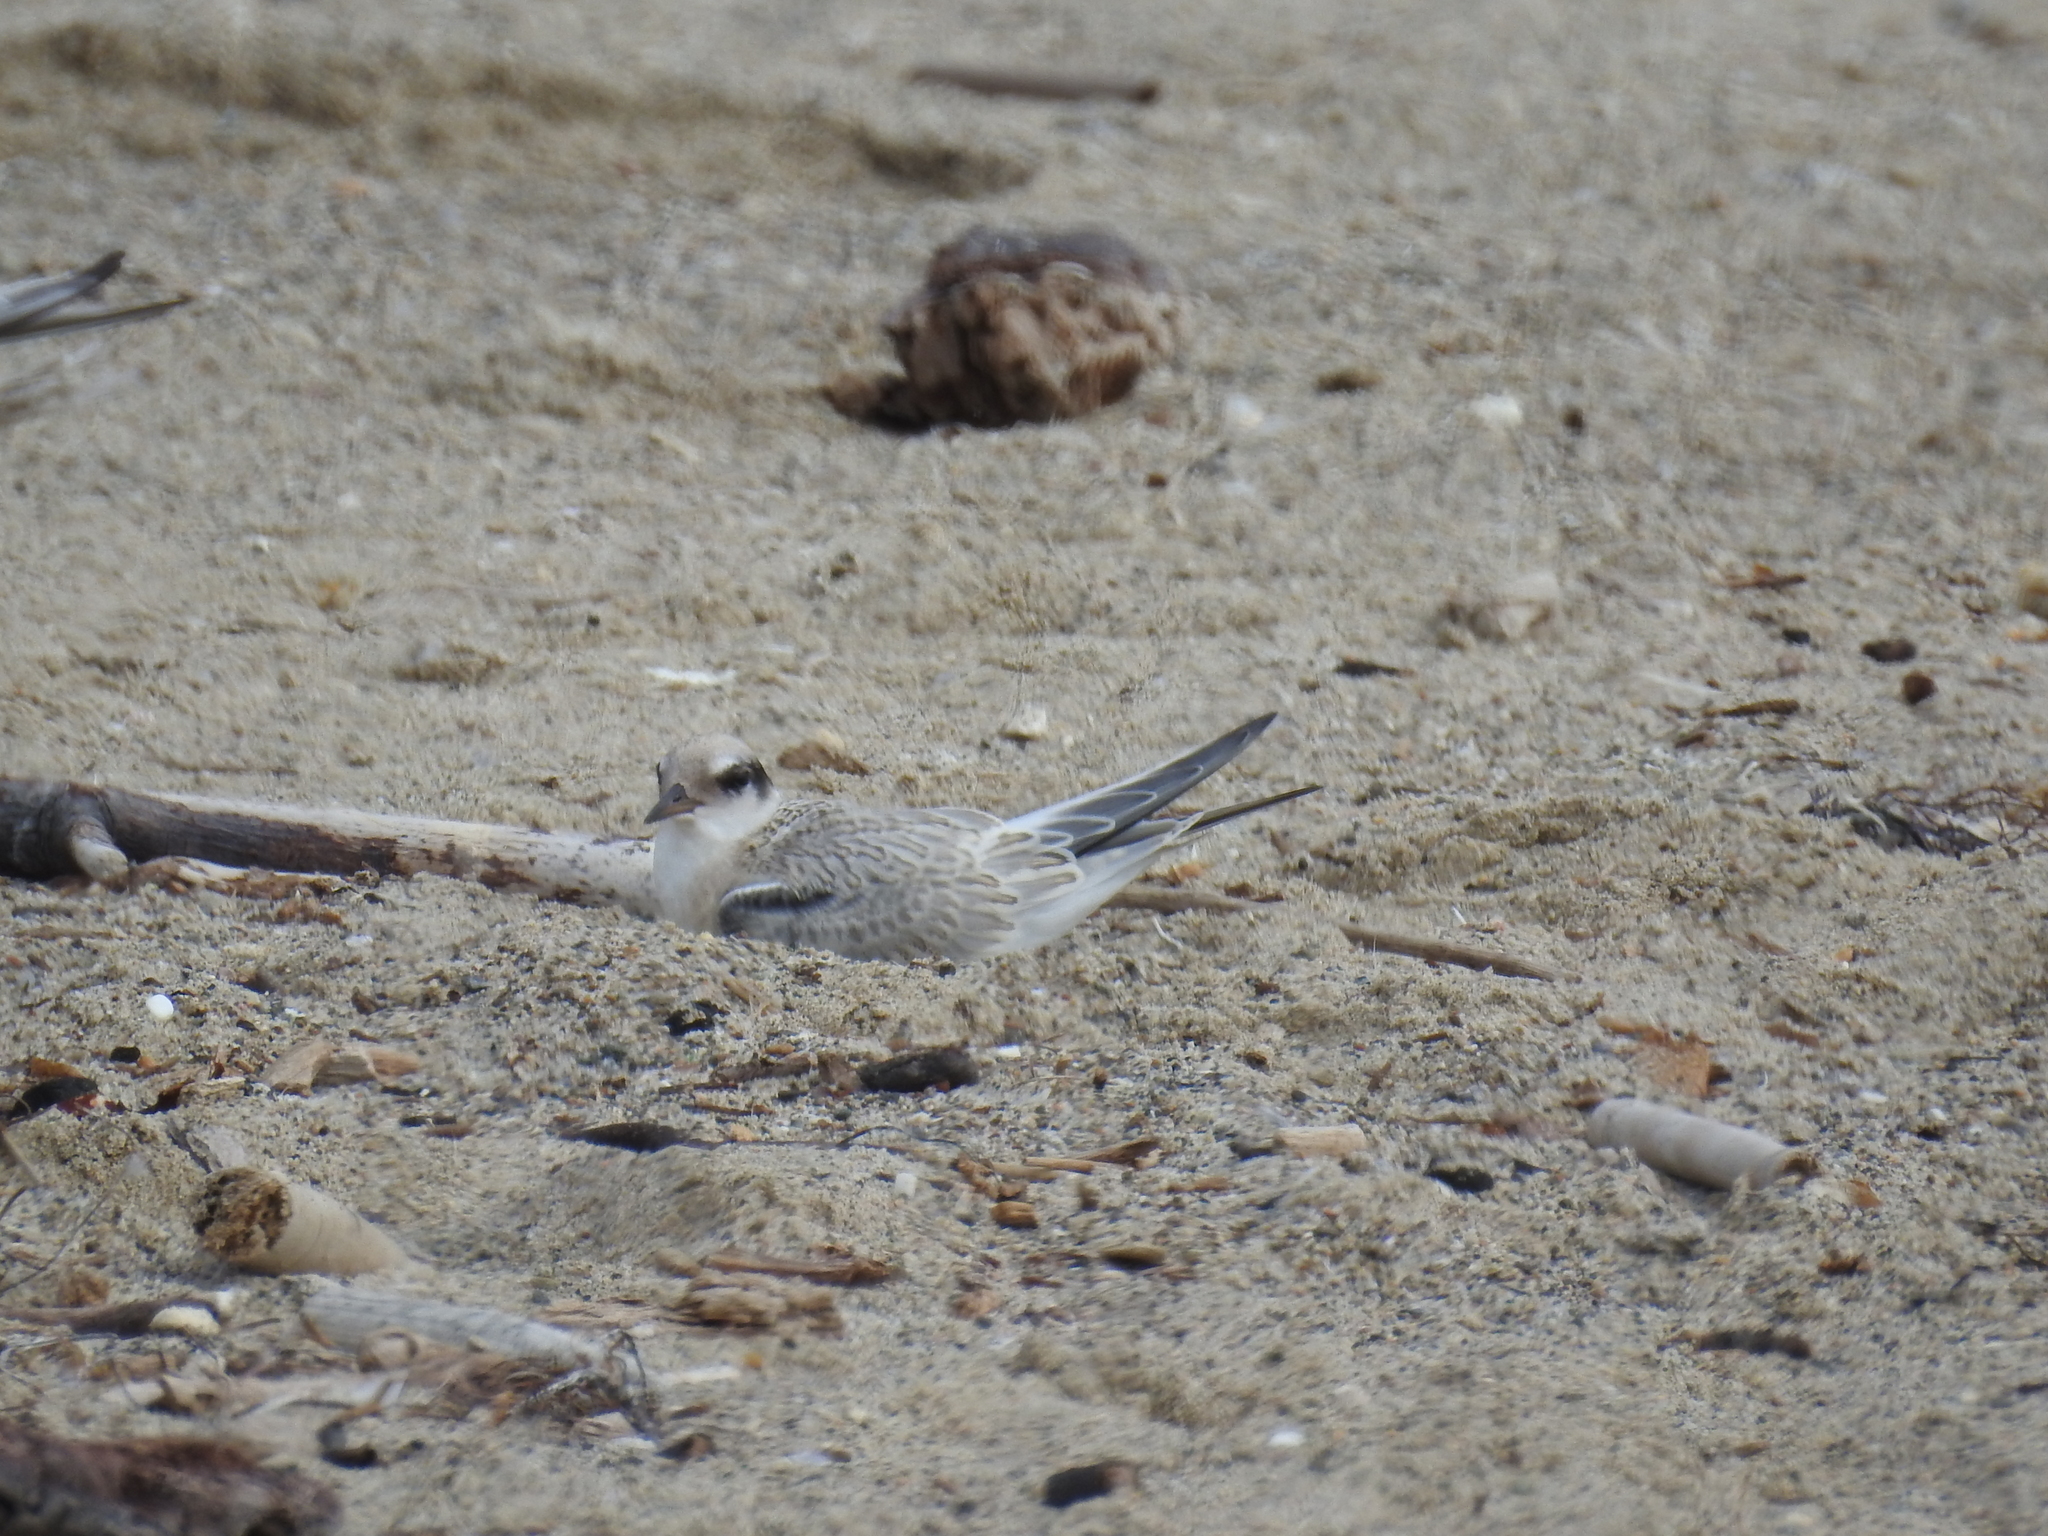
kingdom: Animalia
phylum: Chordata
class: Aves
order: Charadriiformes
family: Laridae
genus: Sternula
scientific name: Sternula antillarum
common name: Least tern
